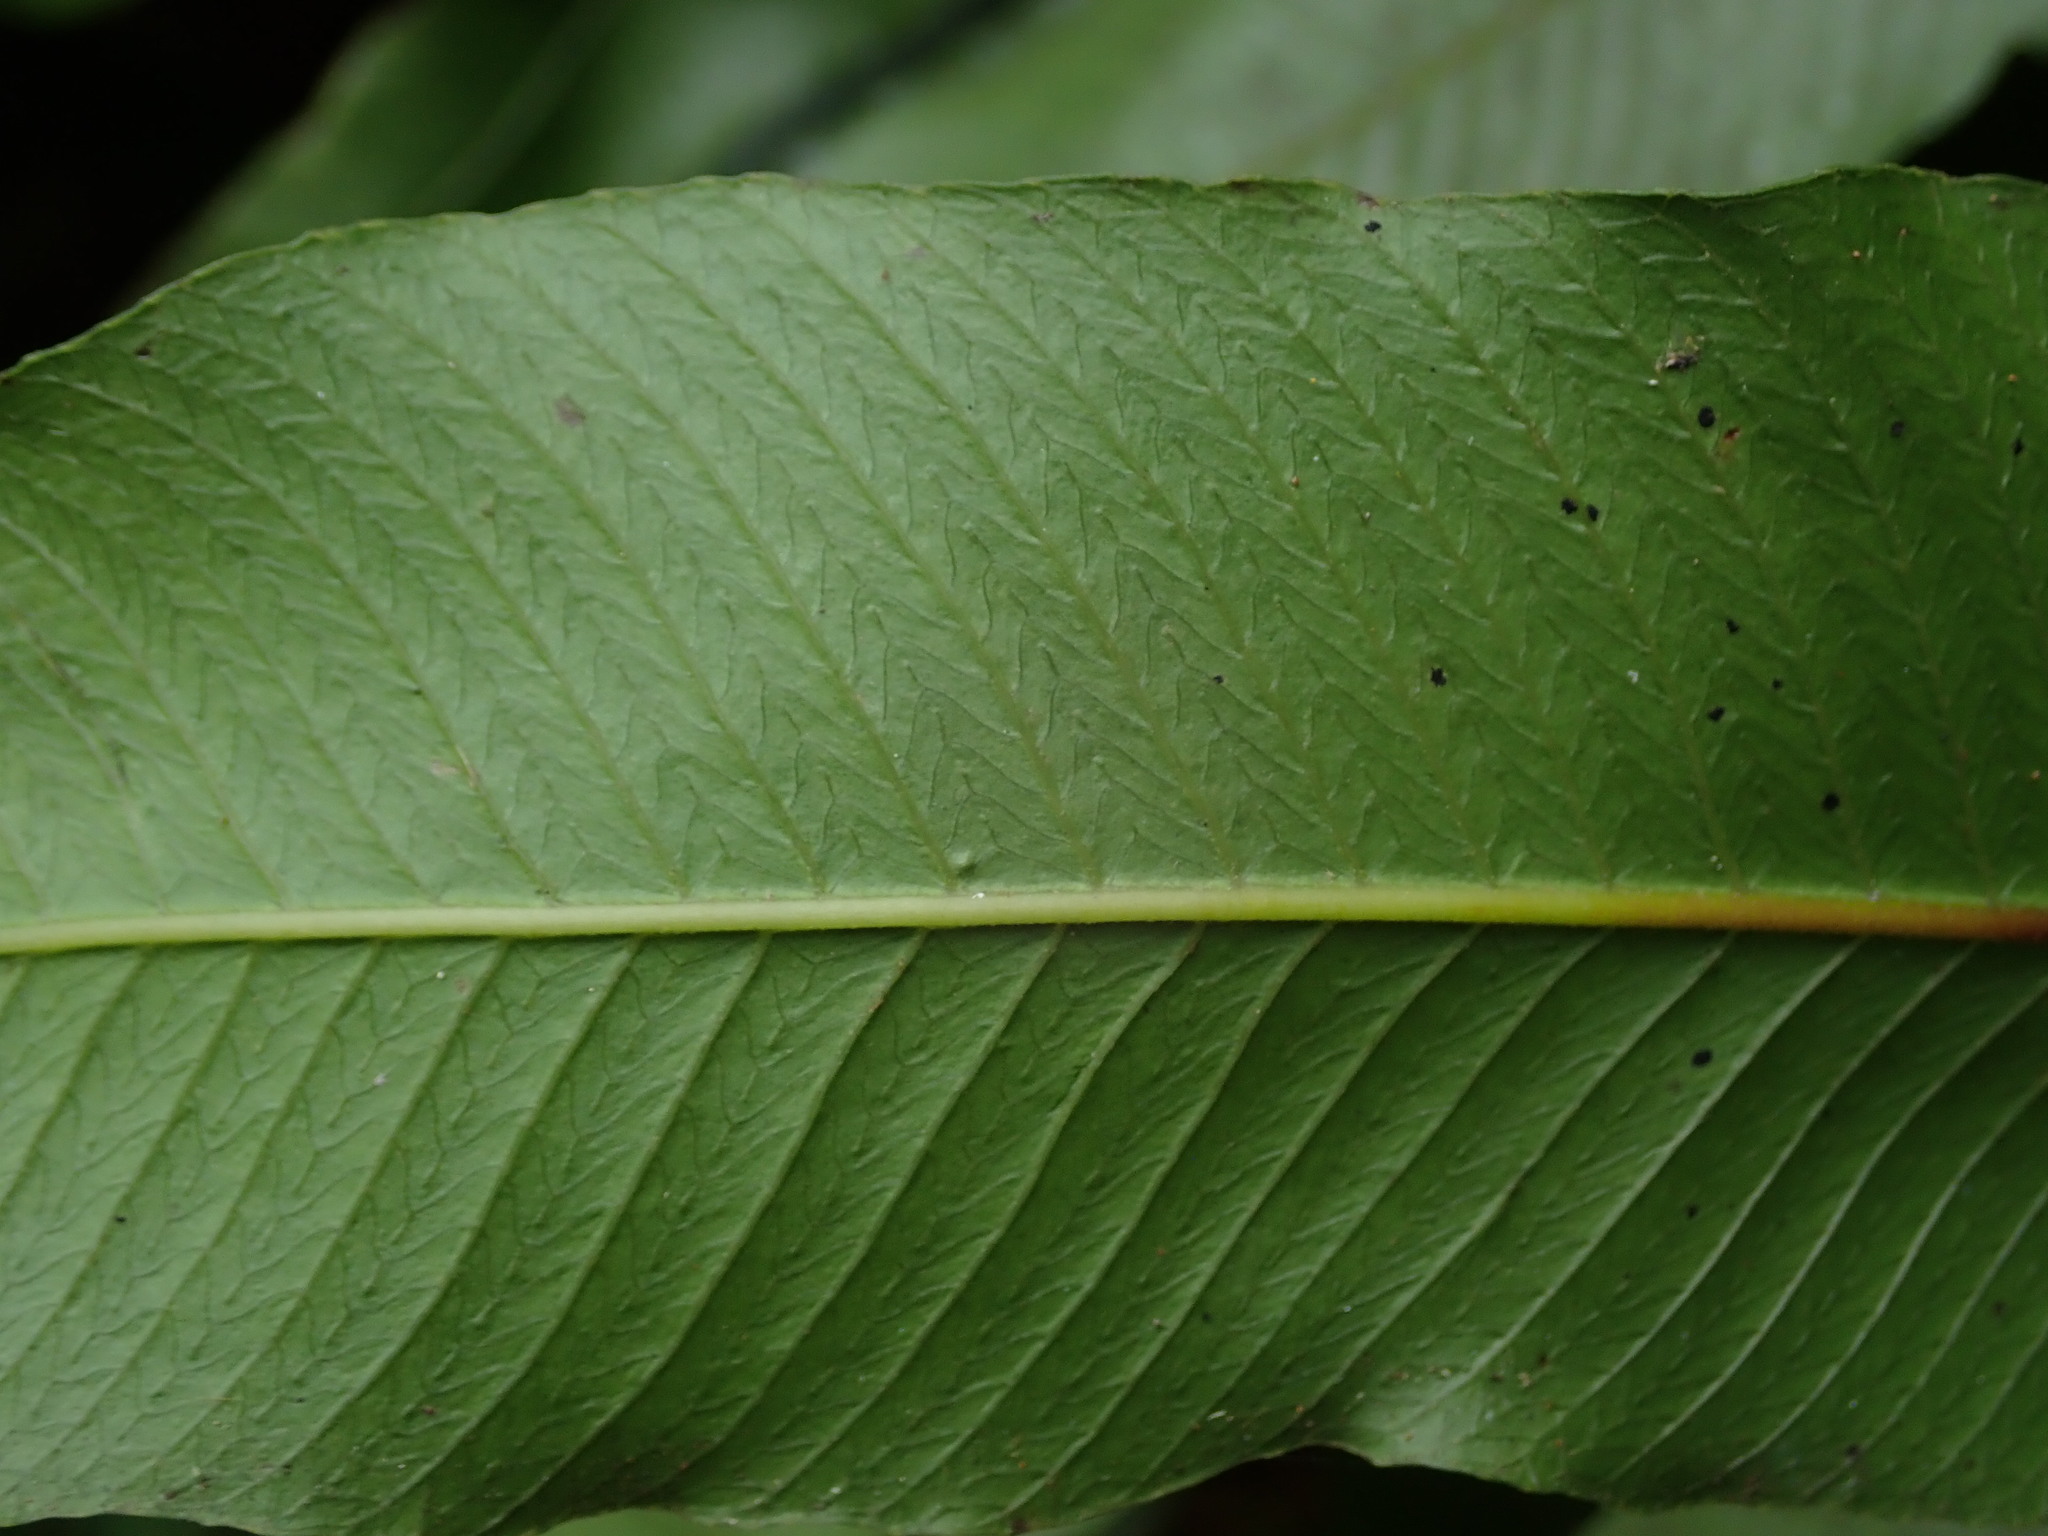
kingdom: Plantae
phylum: Tracheophyta
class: Polypodiopsida
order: Polypodiales
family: Thelypteridaceae
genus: Meniscium
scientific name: Meniscium reticulatum
